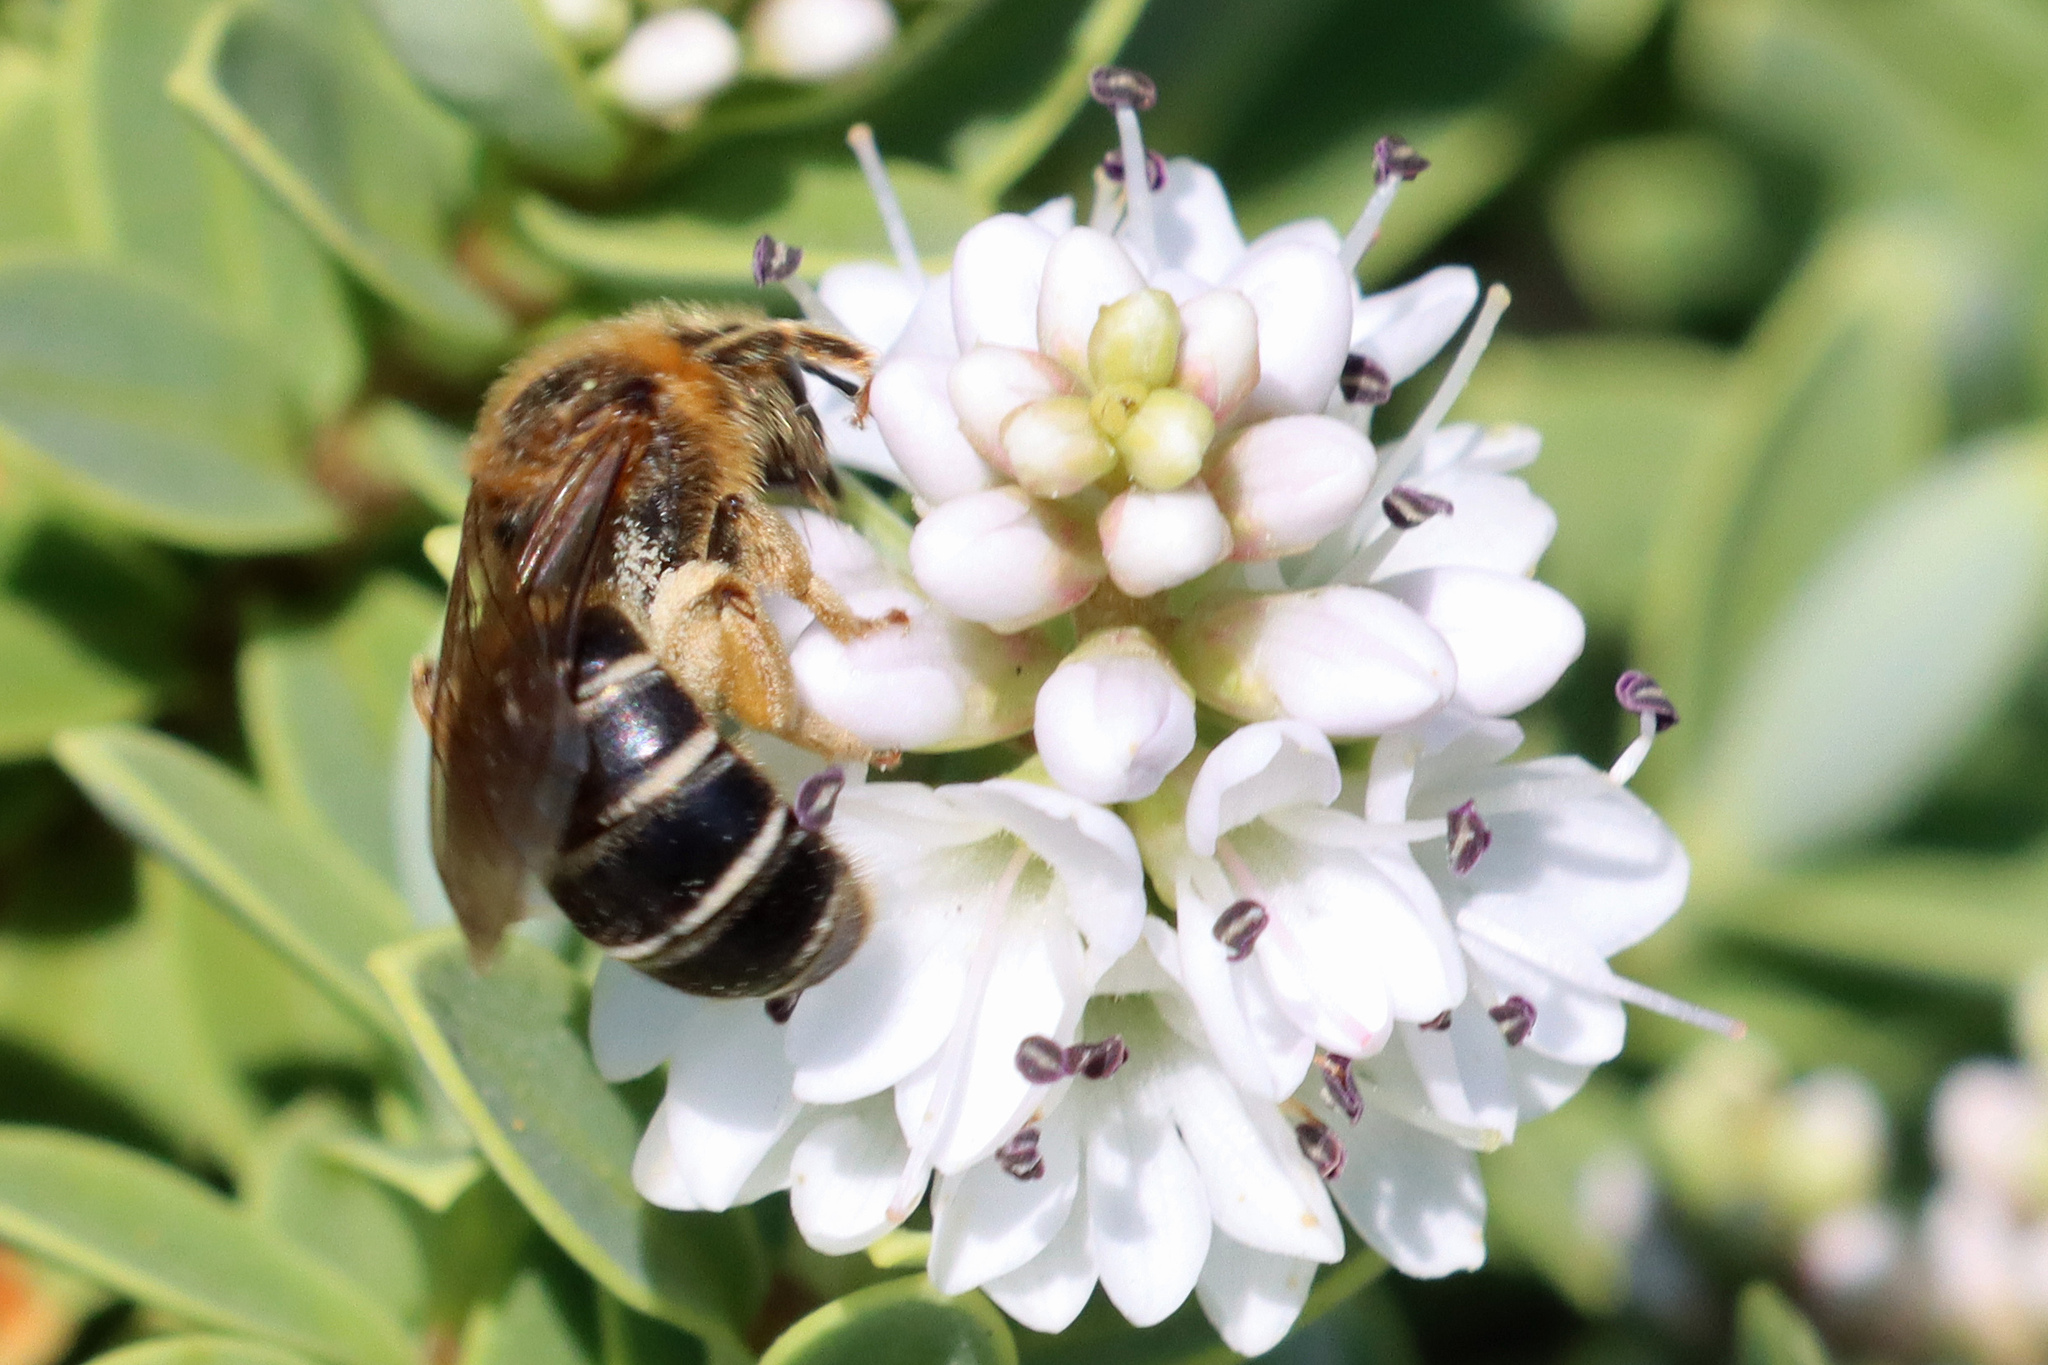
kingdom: Animalia
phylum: Arthropoda
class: Insecta
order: Hymenoptera
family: Halictidae
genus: Halictus
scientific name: Halictus rubicundus
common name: Orange-legged furrow bee
